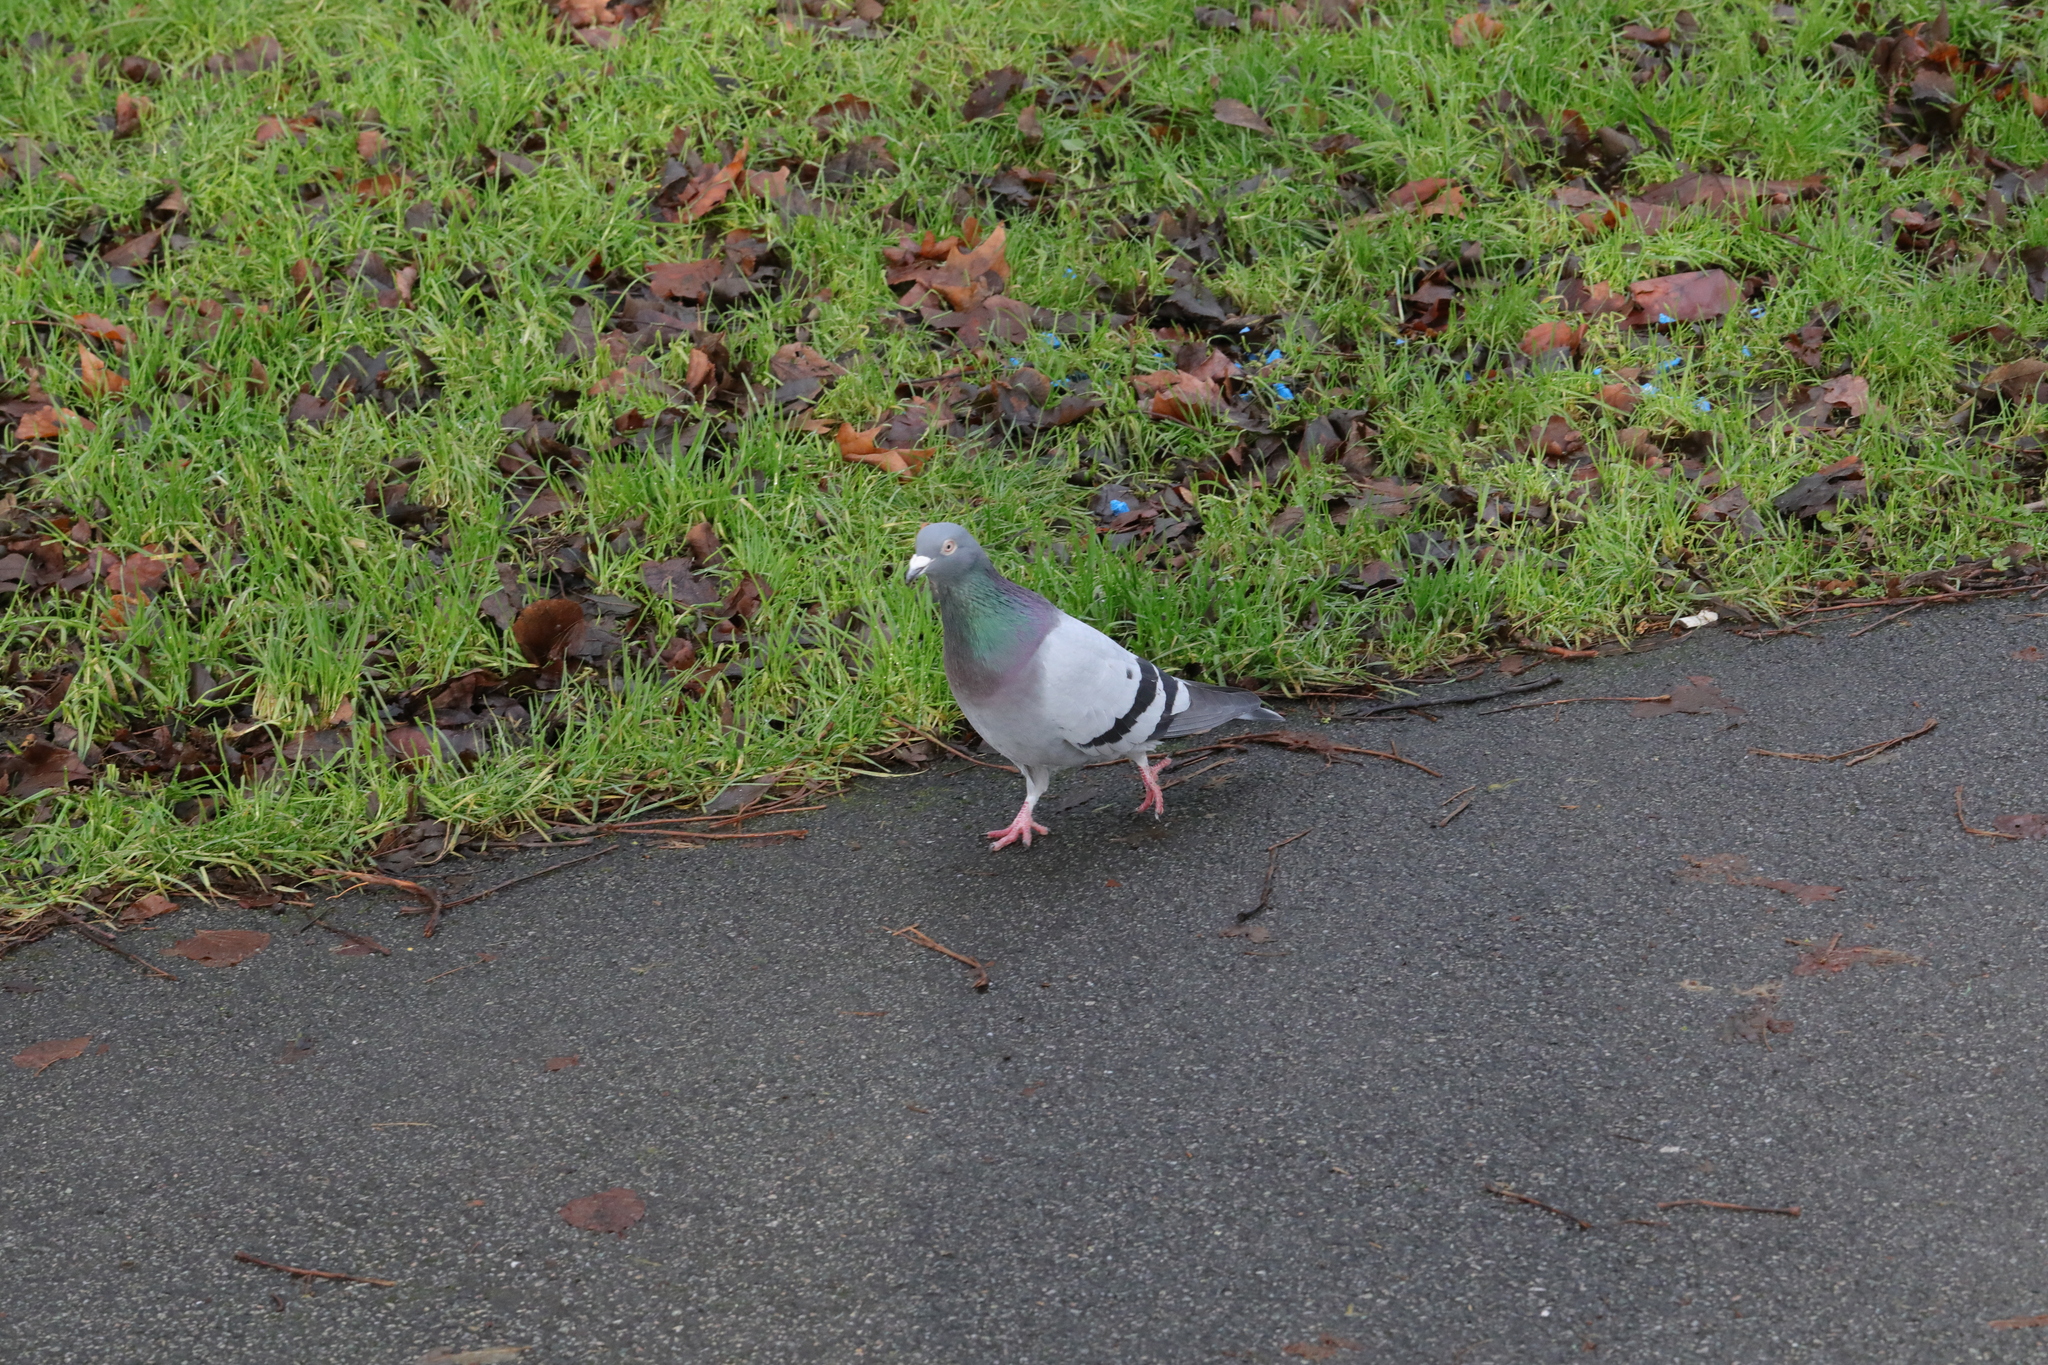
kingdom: Animalia
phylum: Chordata
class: Aves
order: Columbiformes
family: Columbidae
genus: Columba
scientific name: Columba livia
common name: Rock pigeon
